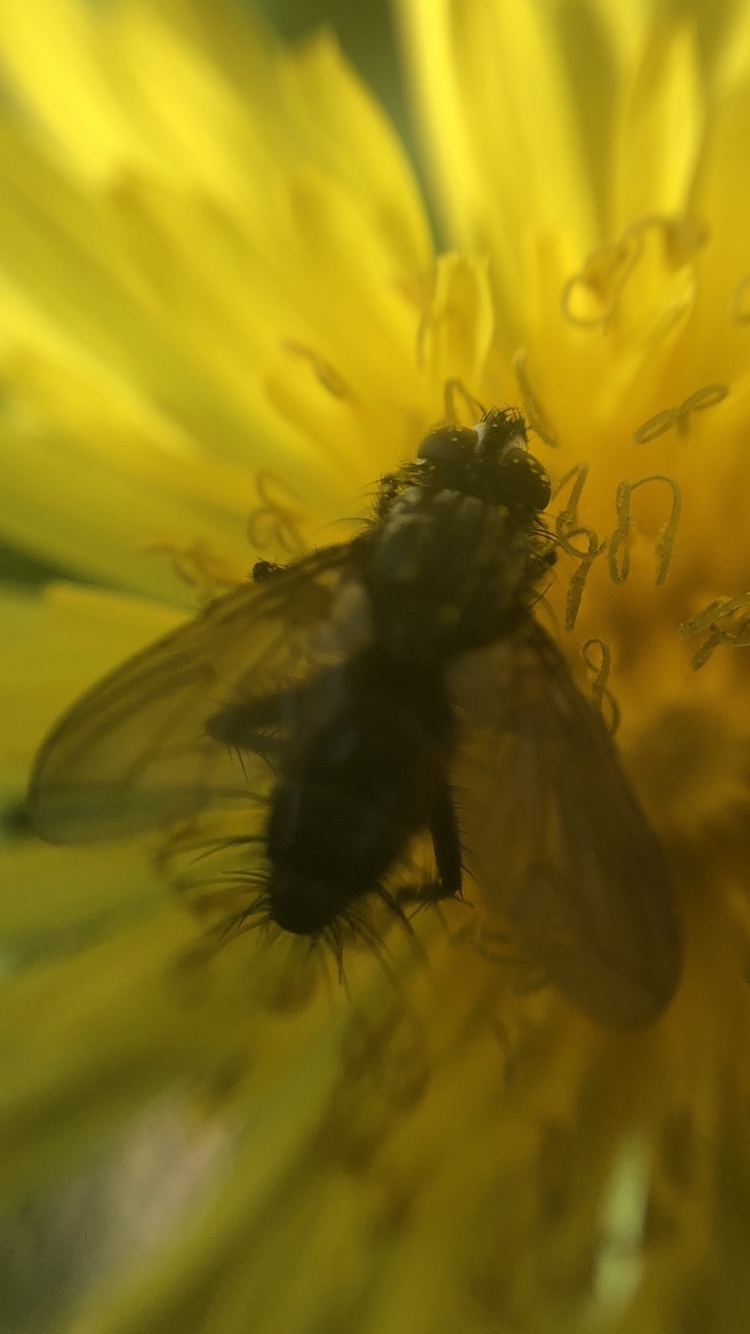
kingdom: Animalia
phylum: Arthropoda
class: Insecta
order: Diptera
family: Tachinidae
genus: Eriothrix
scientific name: Eriothrix rufomaculatus
